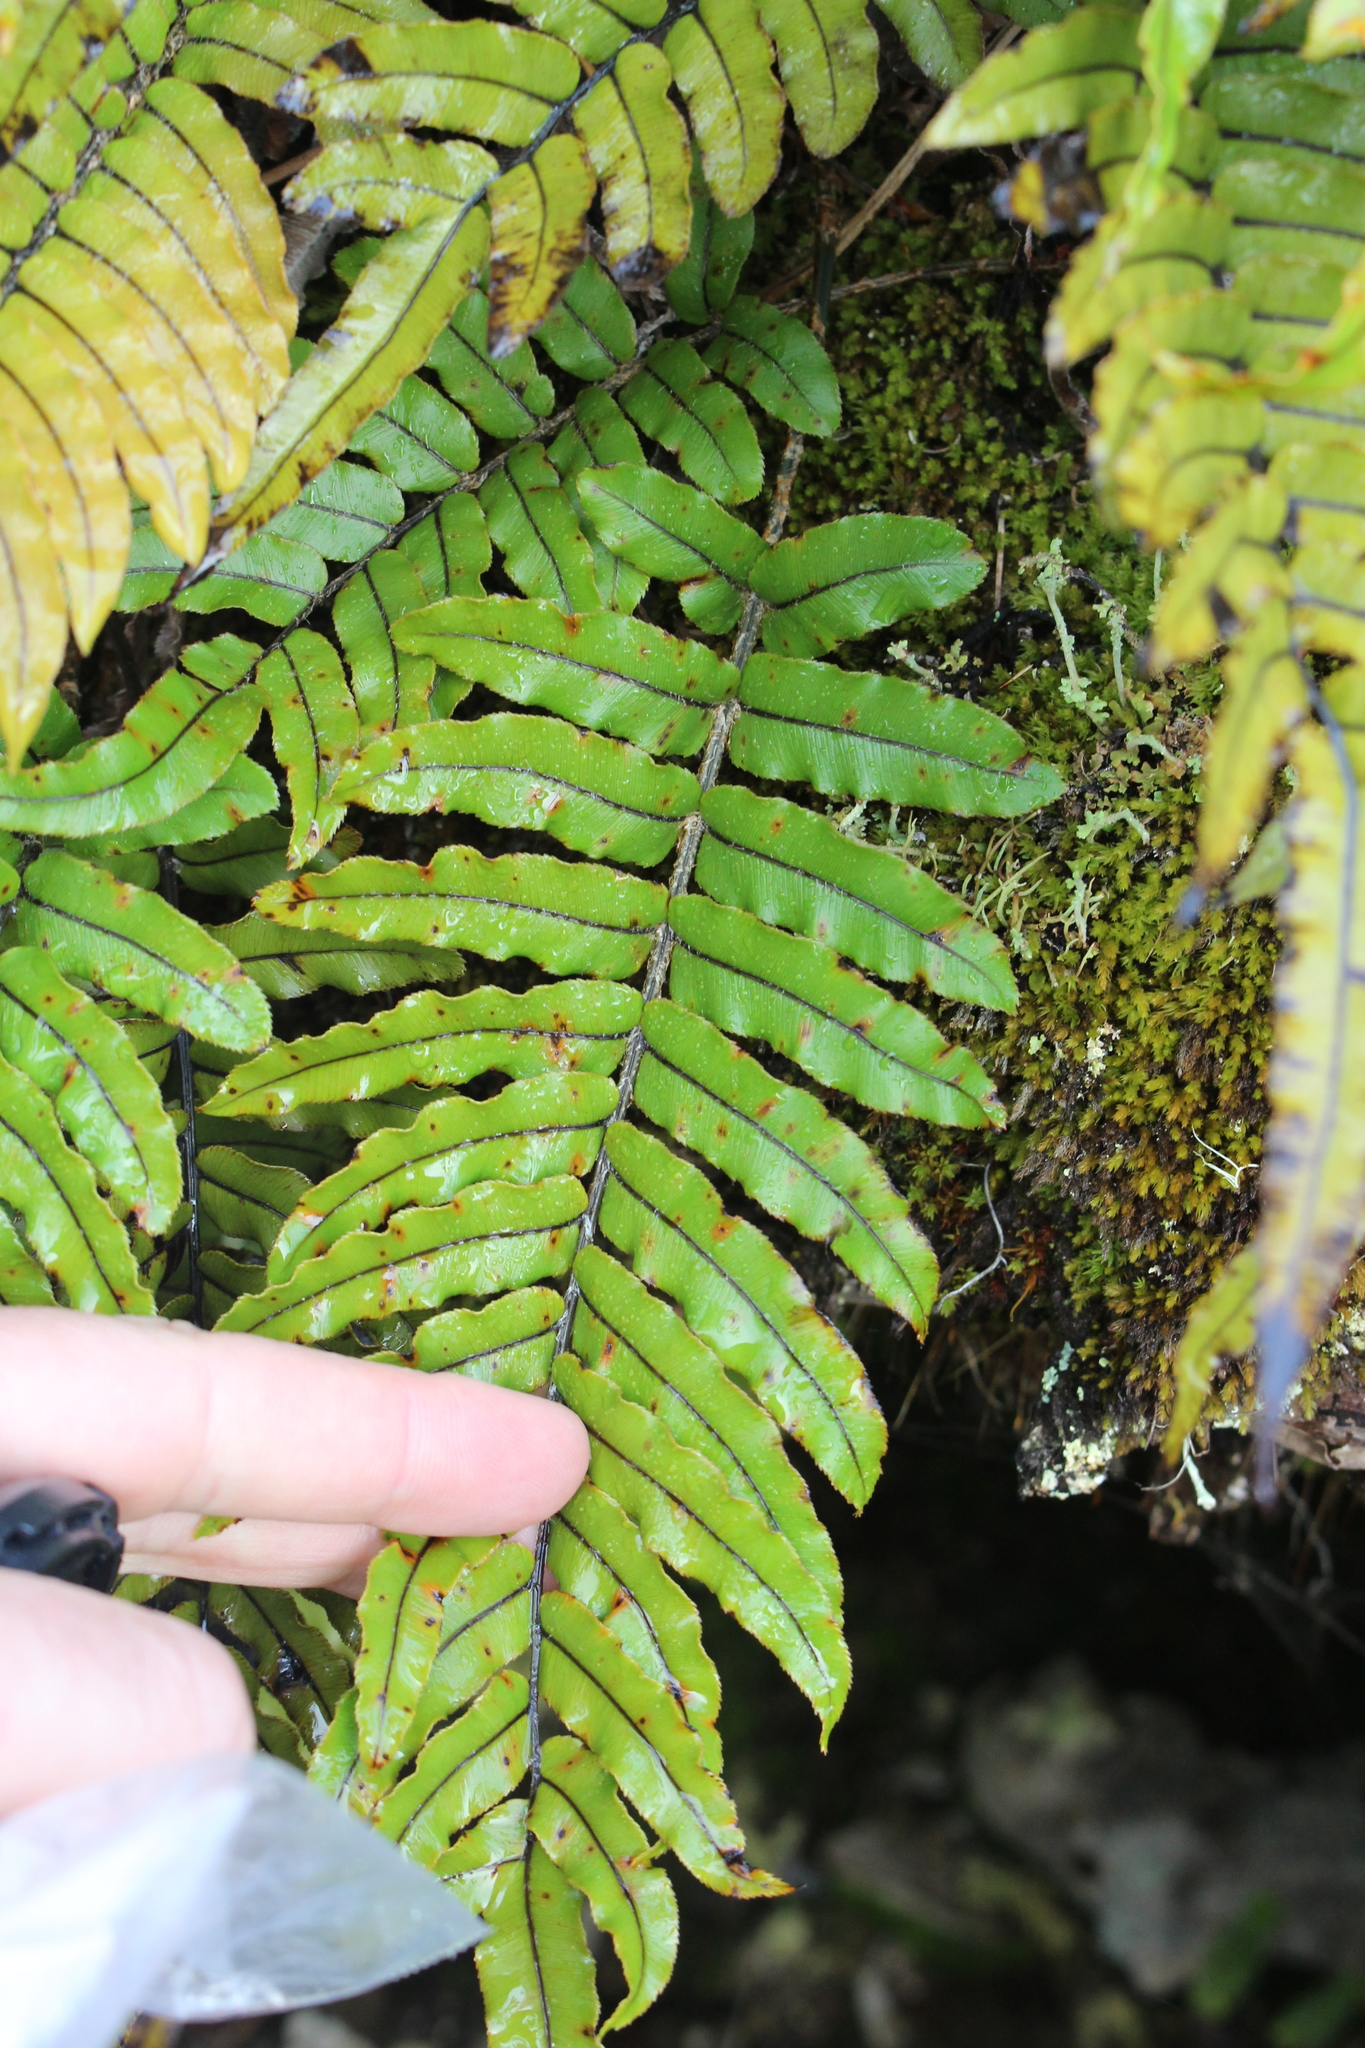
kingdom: Plantae
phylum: Tracheophyta
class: Polypodiopsida
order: Polypodiales
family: Blechnaceae
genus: Parablechnum
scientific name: Parablechnum montanum
